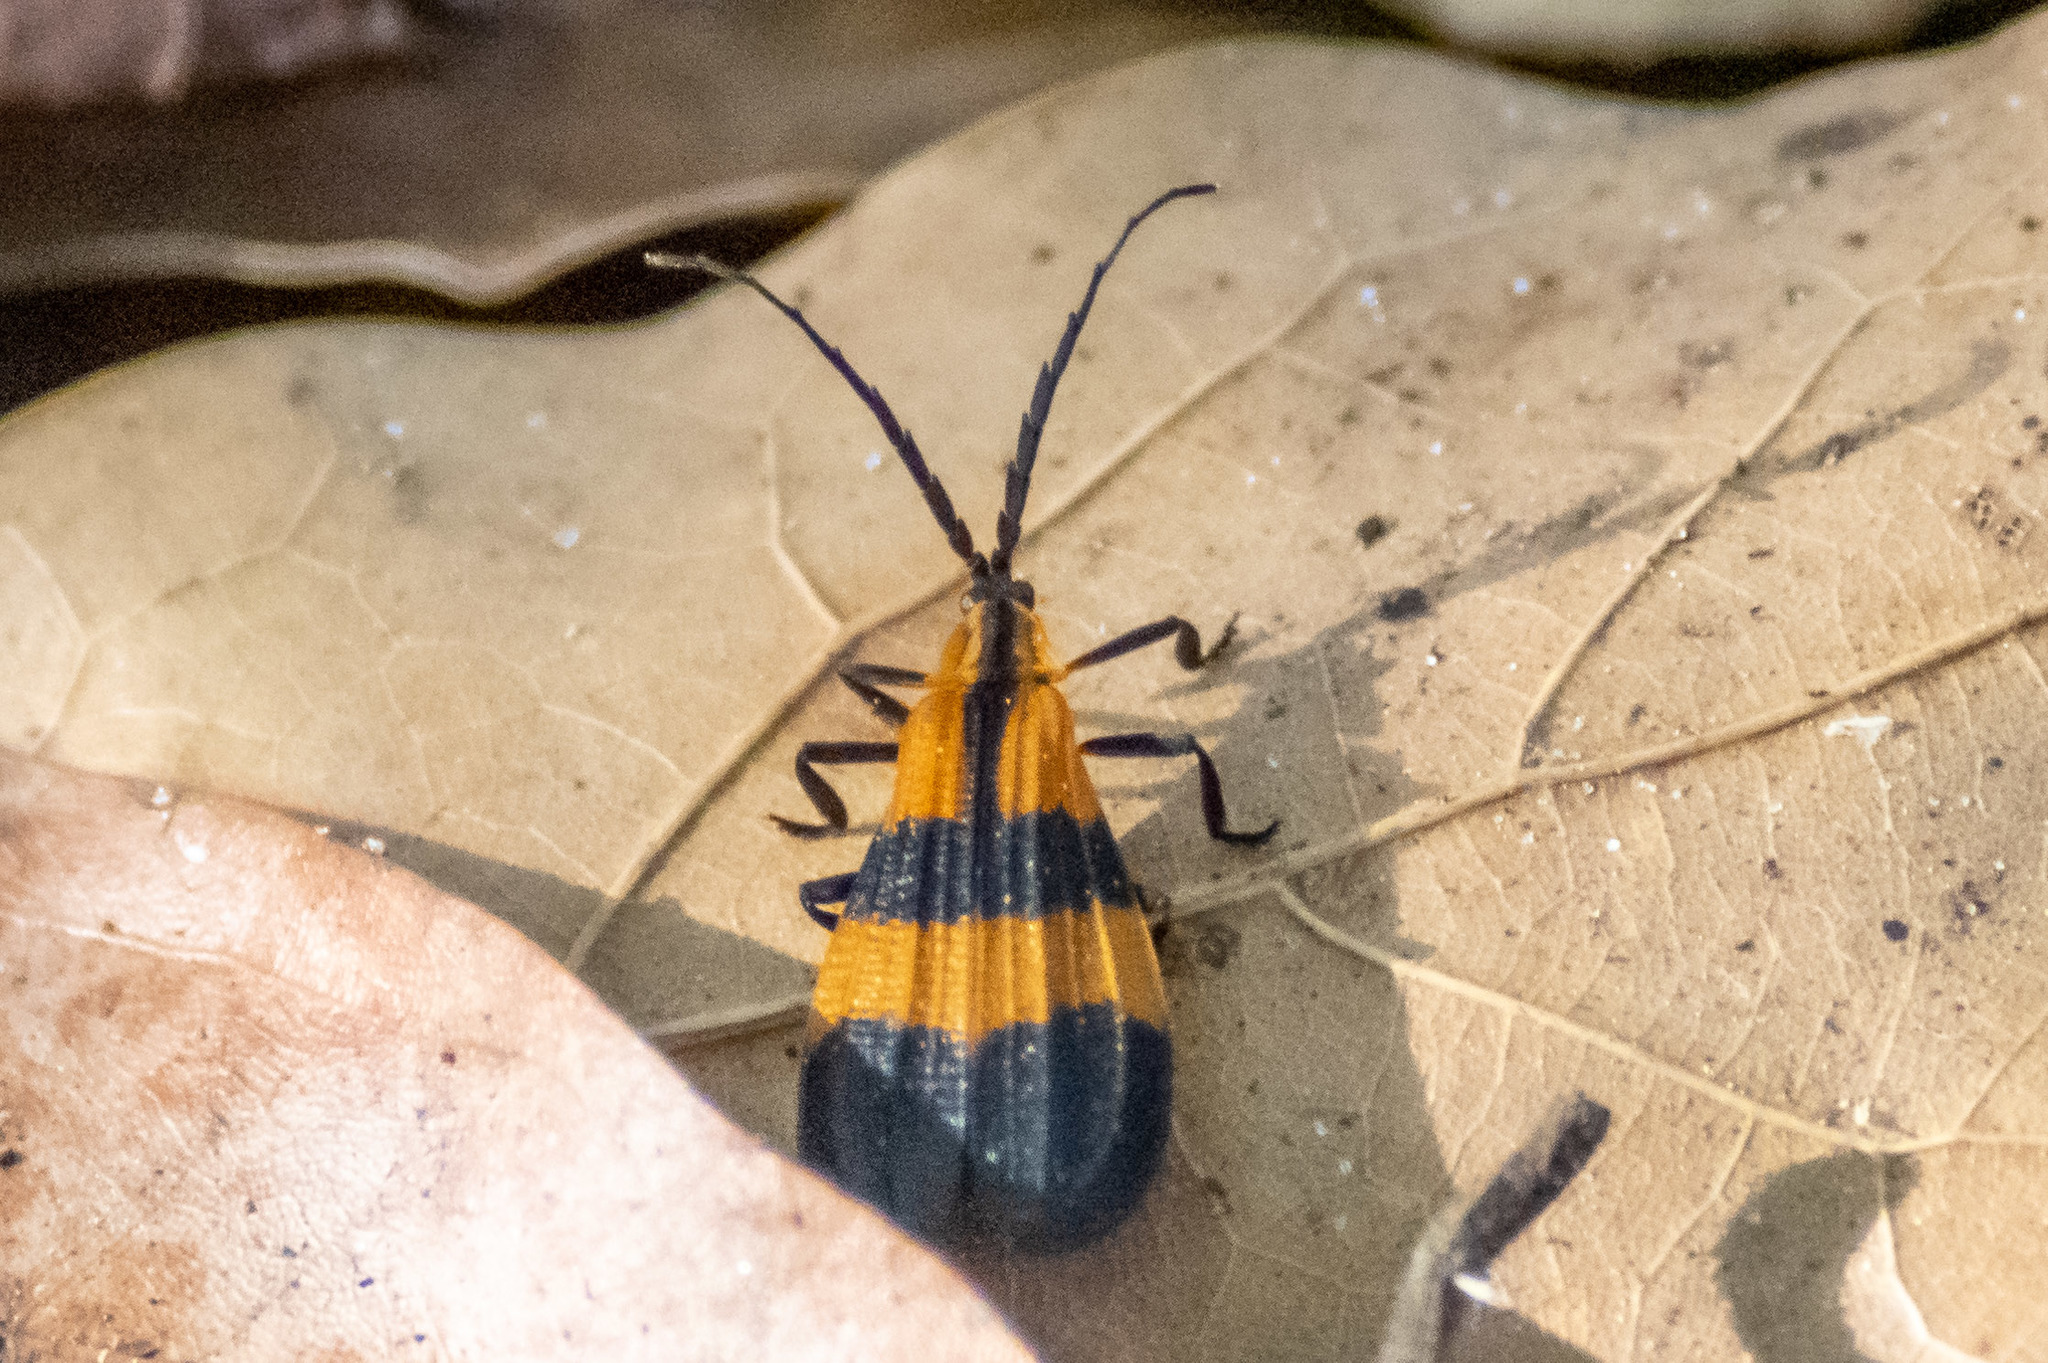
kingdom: Animalia
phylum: Arthropoda
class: Insecta
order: Coleoptera
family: Lycidae
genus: Calopteron
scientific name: Calopteron reticulatum
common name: Banded net-winged beetle
